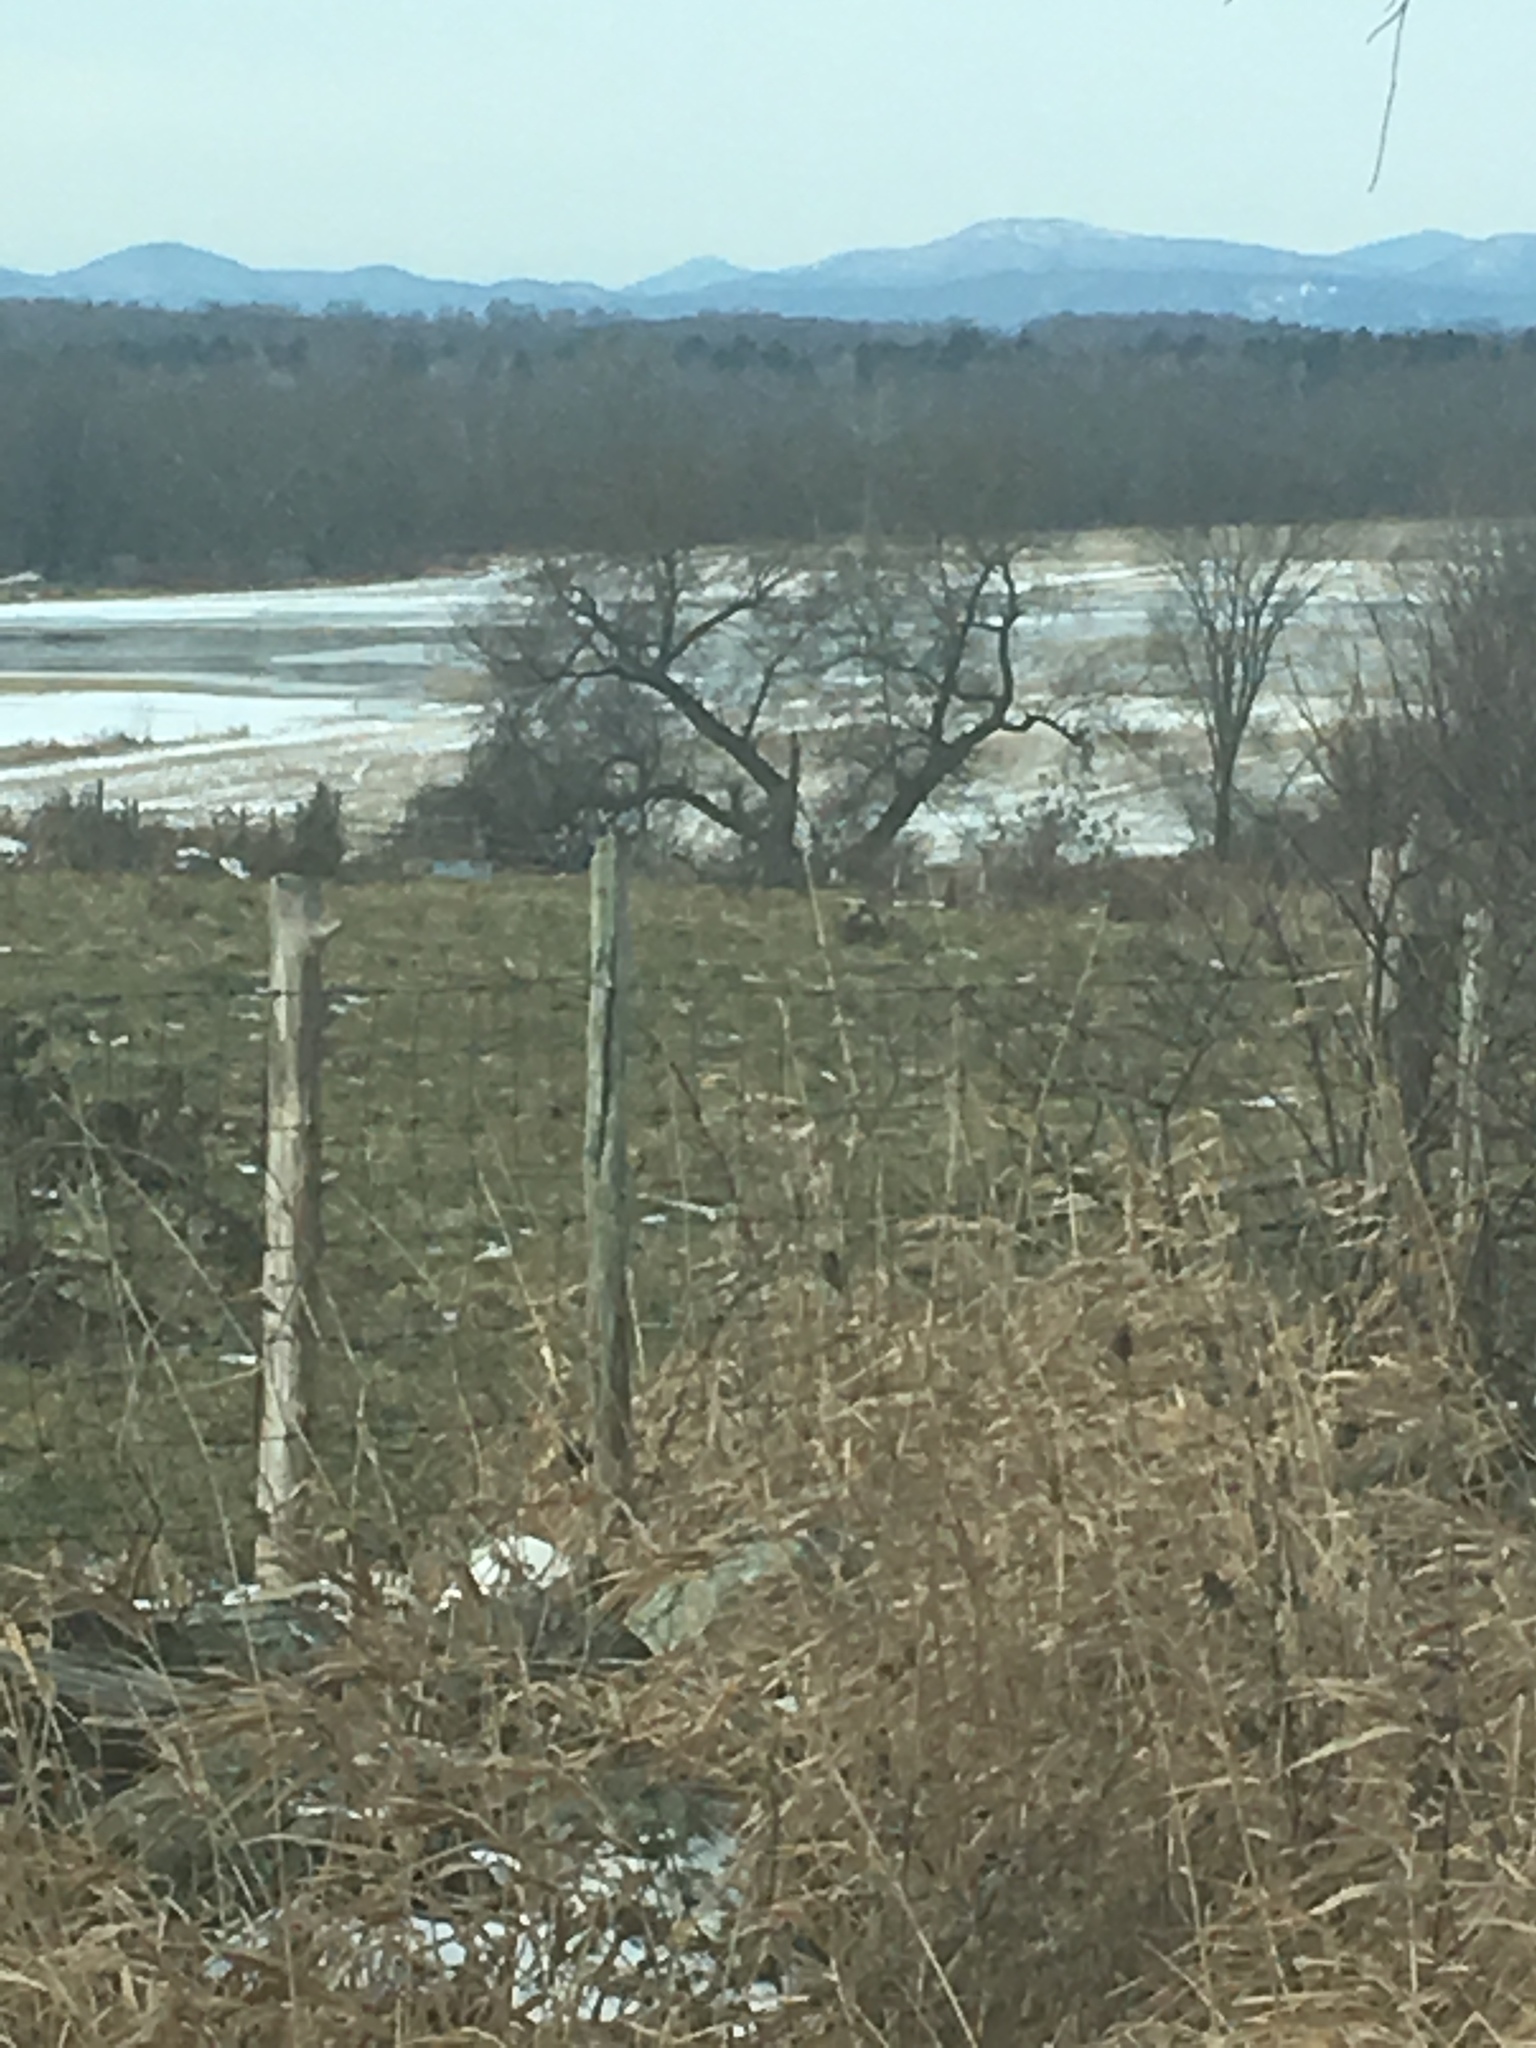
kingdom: Plantae
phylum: Tracheophyta
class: Magnoliopsida
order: Malpighiales
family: Salicaceae
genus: Salix
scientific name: Salix nigra
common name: Black willow
